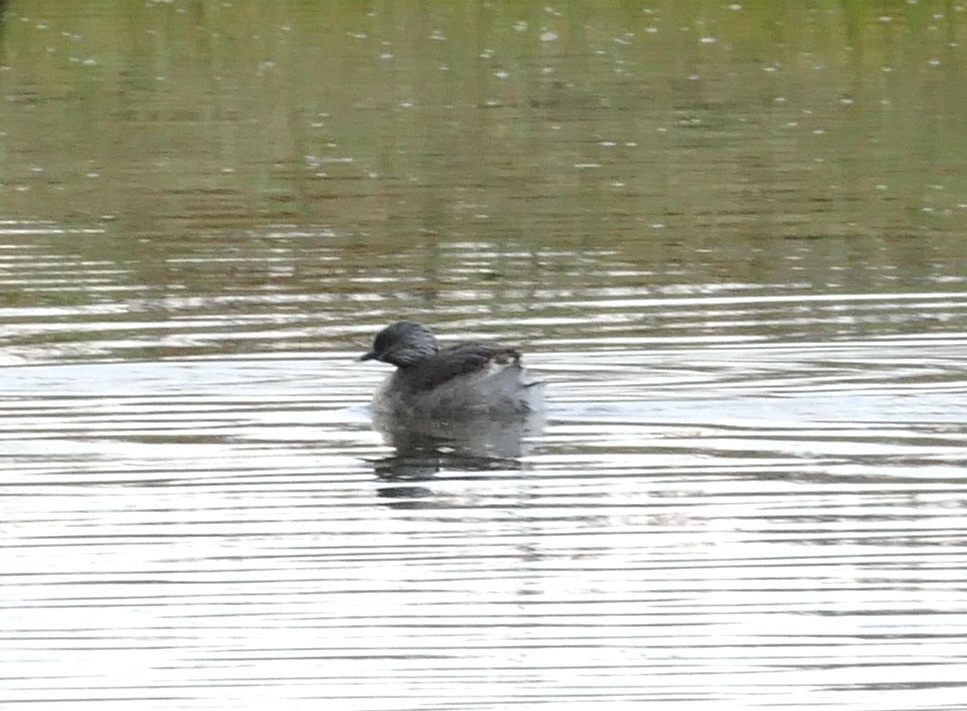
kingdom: Animalia
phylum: Chordata
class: Aves
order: Podicipediformes
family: Podicipedidae
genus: Poliocephalus
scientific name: Poliocephalus poliocephalus
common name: Hoary-headed grebe
